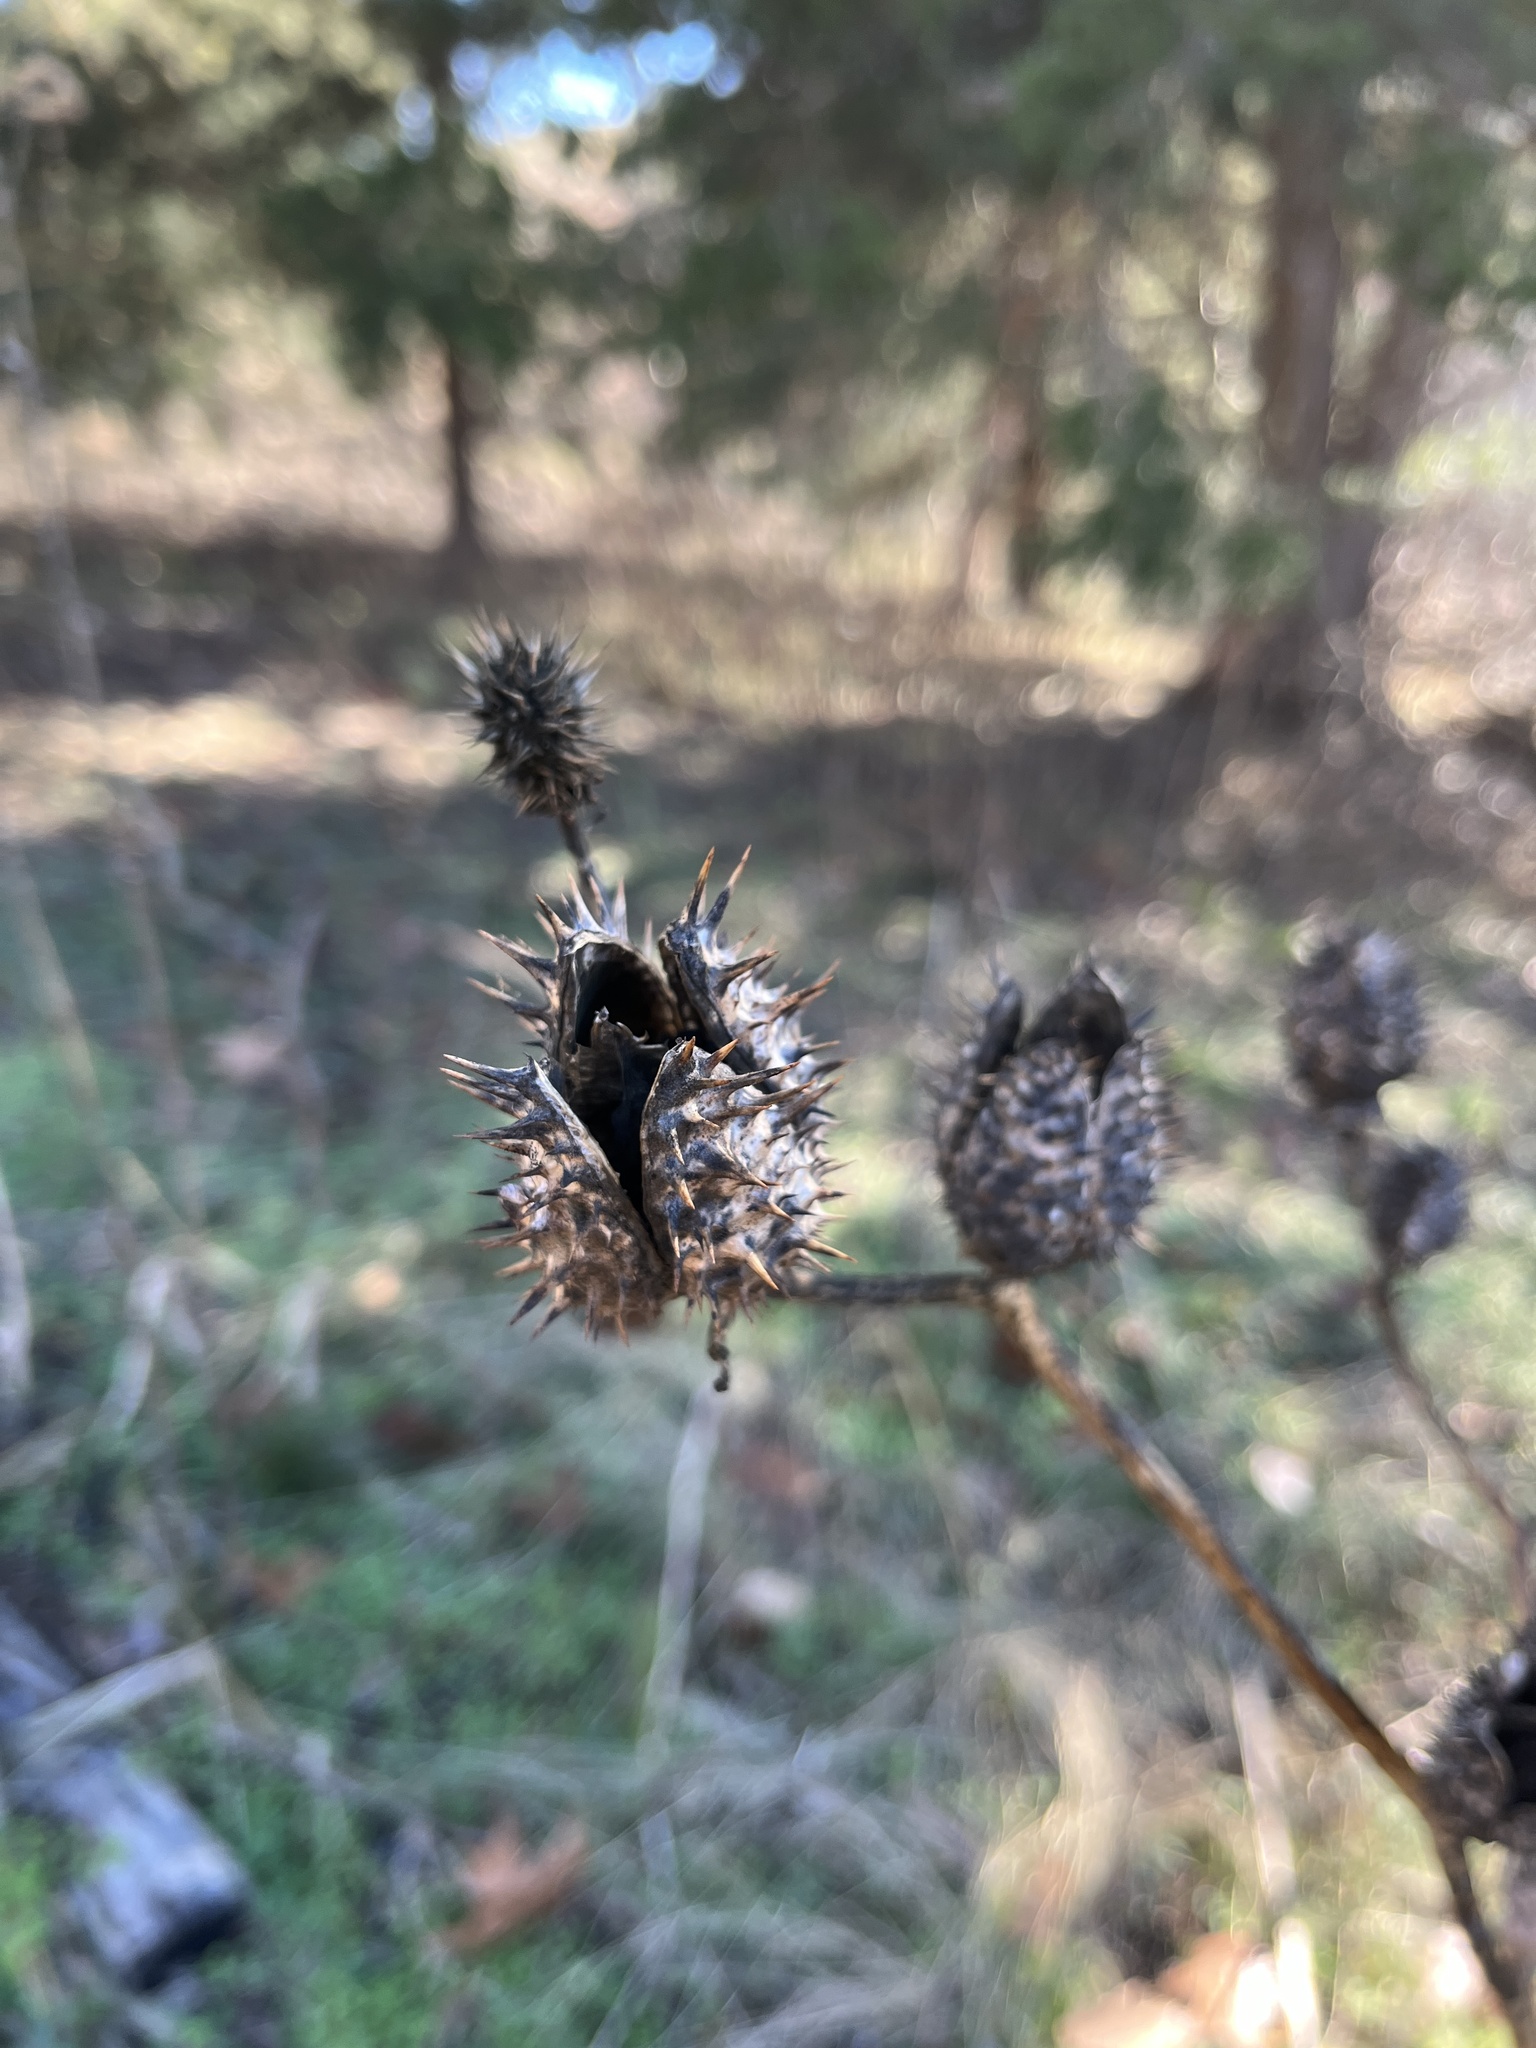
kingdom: Plantae
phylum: Tracheophyta
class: Magnoliopsida
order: Solanales
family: Solanaceae
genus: Datura
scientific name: Datura stramonium
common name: Thorn-apple
